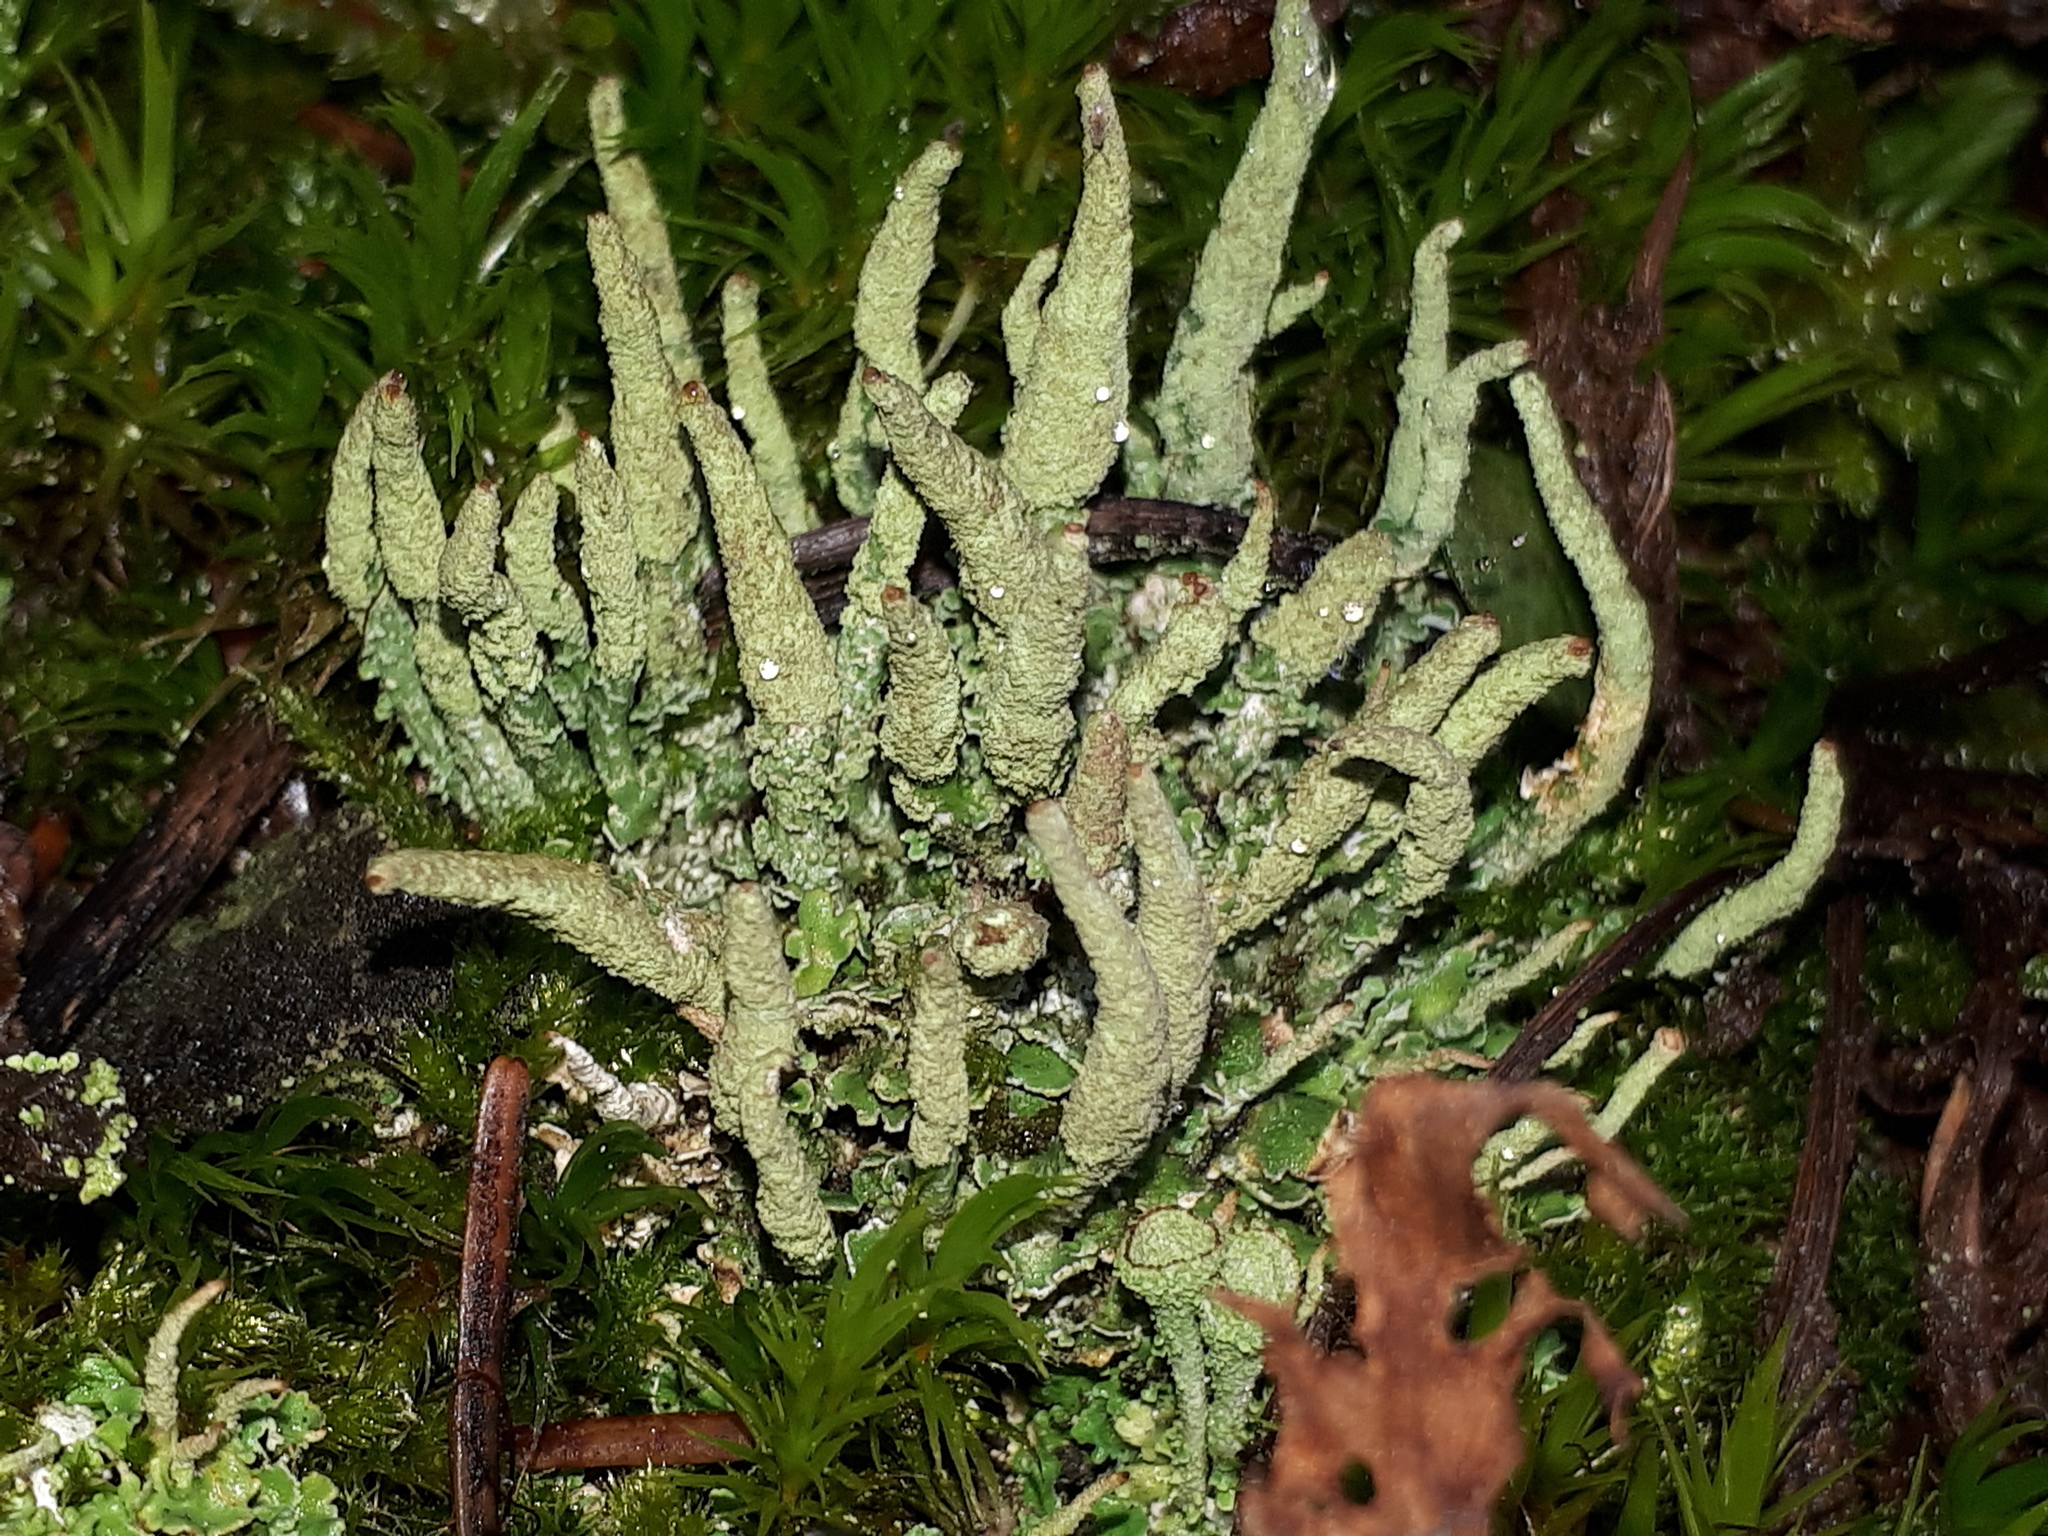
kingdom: Fungi
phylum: Ascomycota
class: Lecanoromycetes
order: Lecanorales
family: Cladoniaceae
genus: Cladonia
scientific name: Cladonia ochrochlora
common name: Smooth-footed powderhorn
